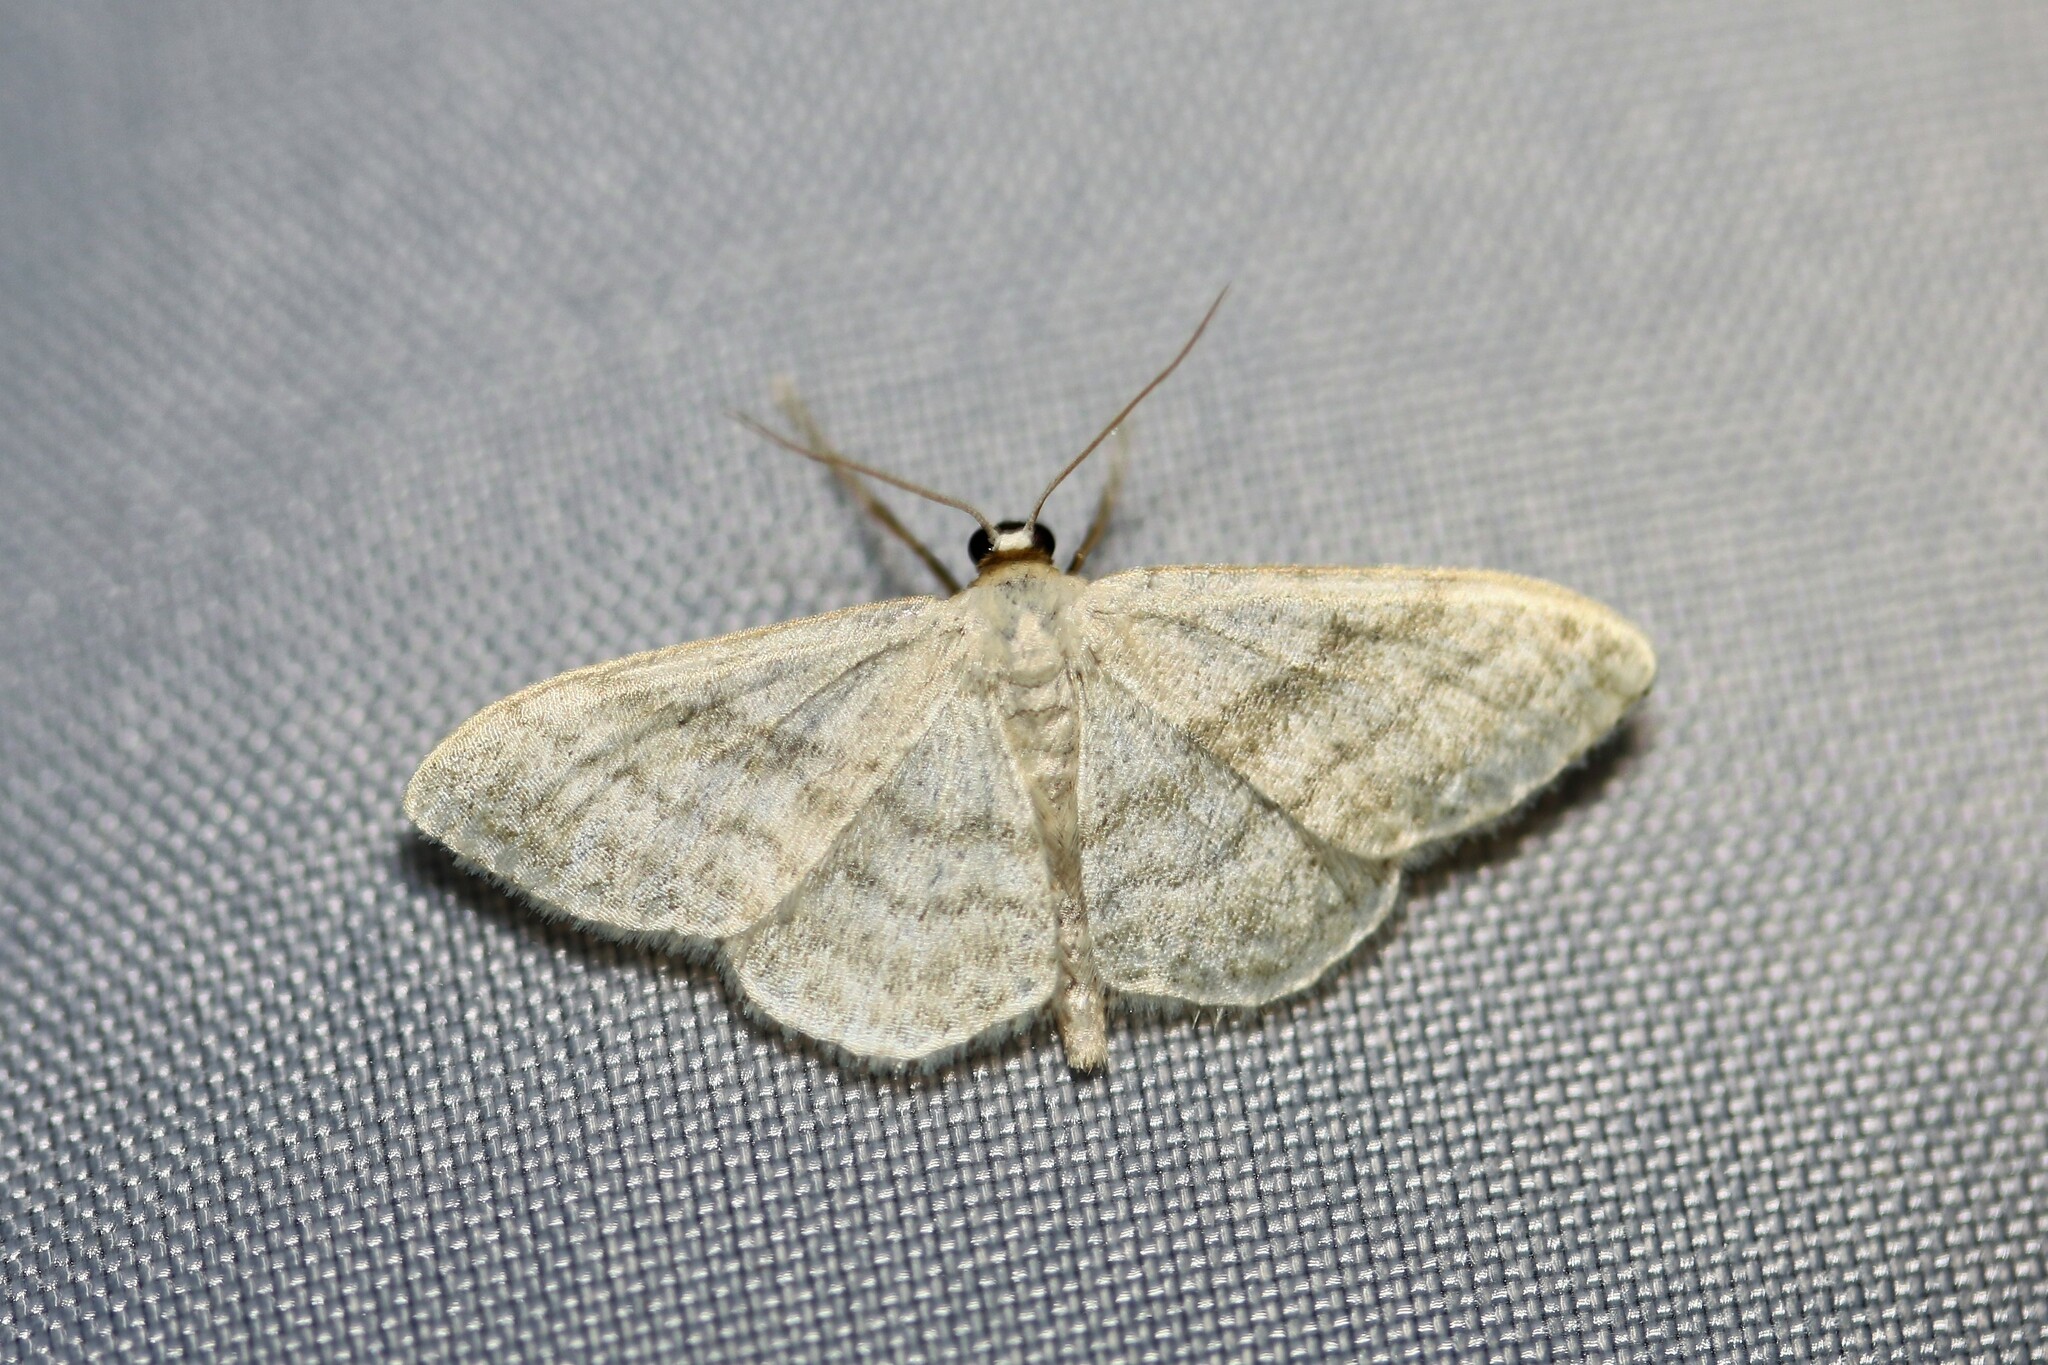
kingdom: Animalia
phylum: Arthropoda
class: Insecta
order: Lepidoptera
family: Geometridae
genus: Idaea
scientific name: Idaea subsericeata
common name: Satin wave
